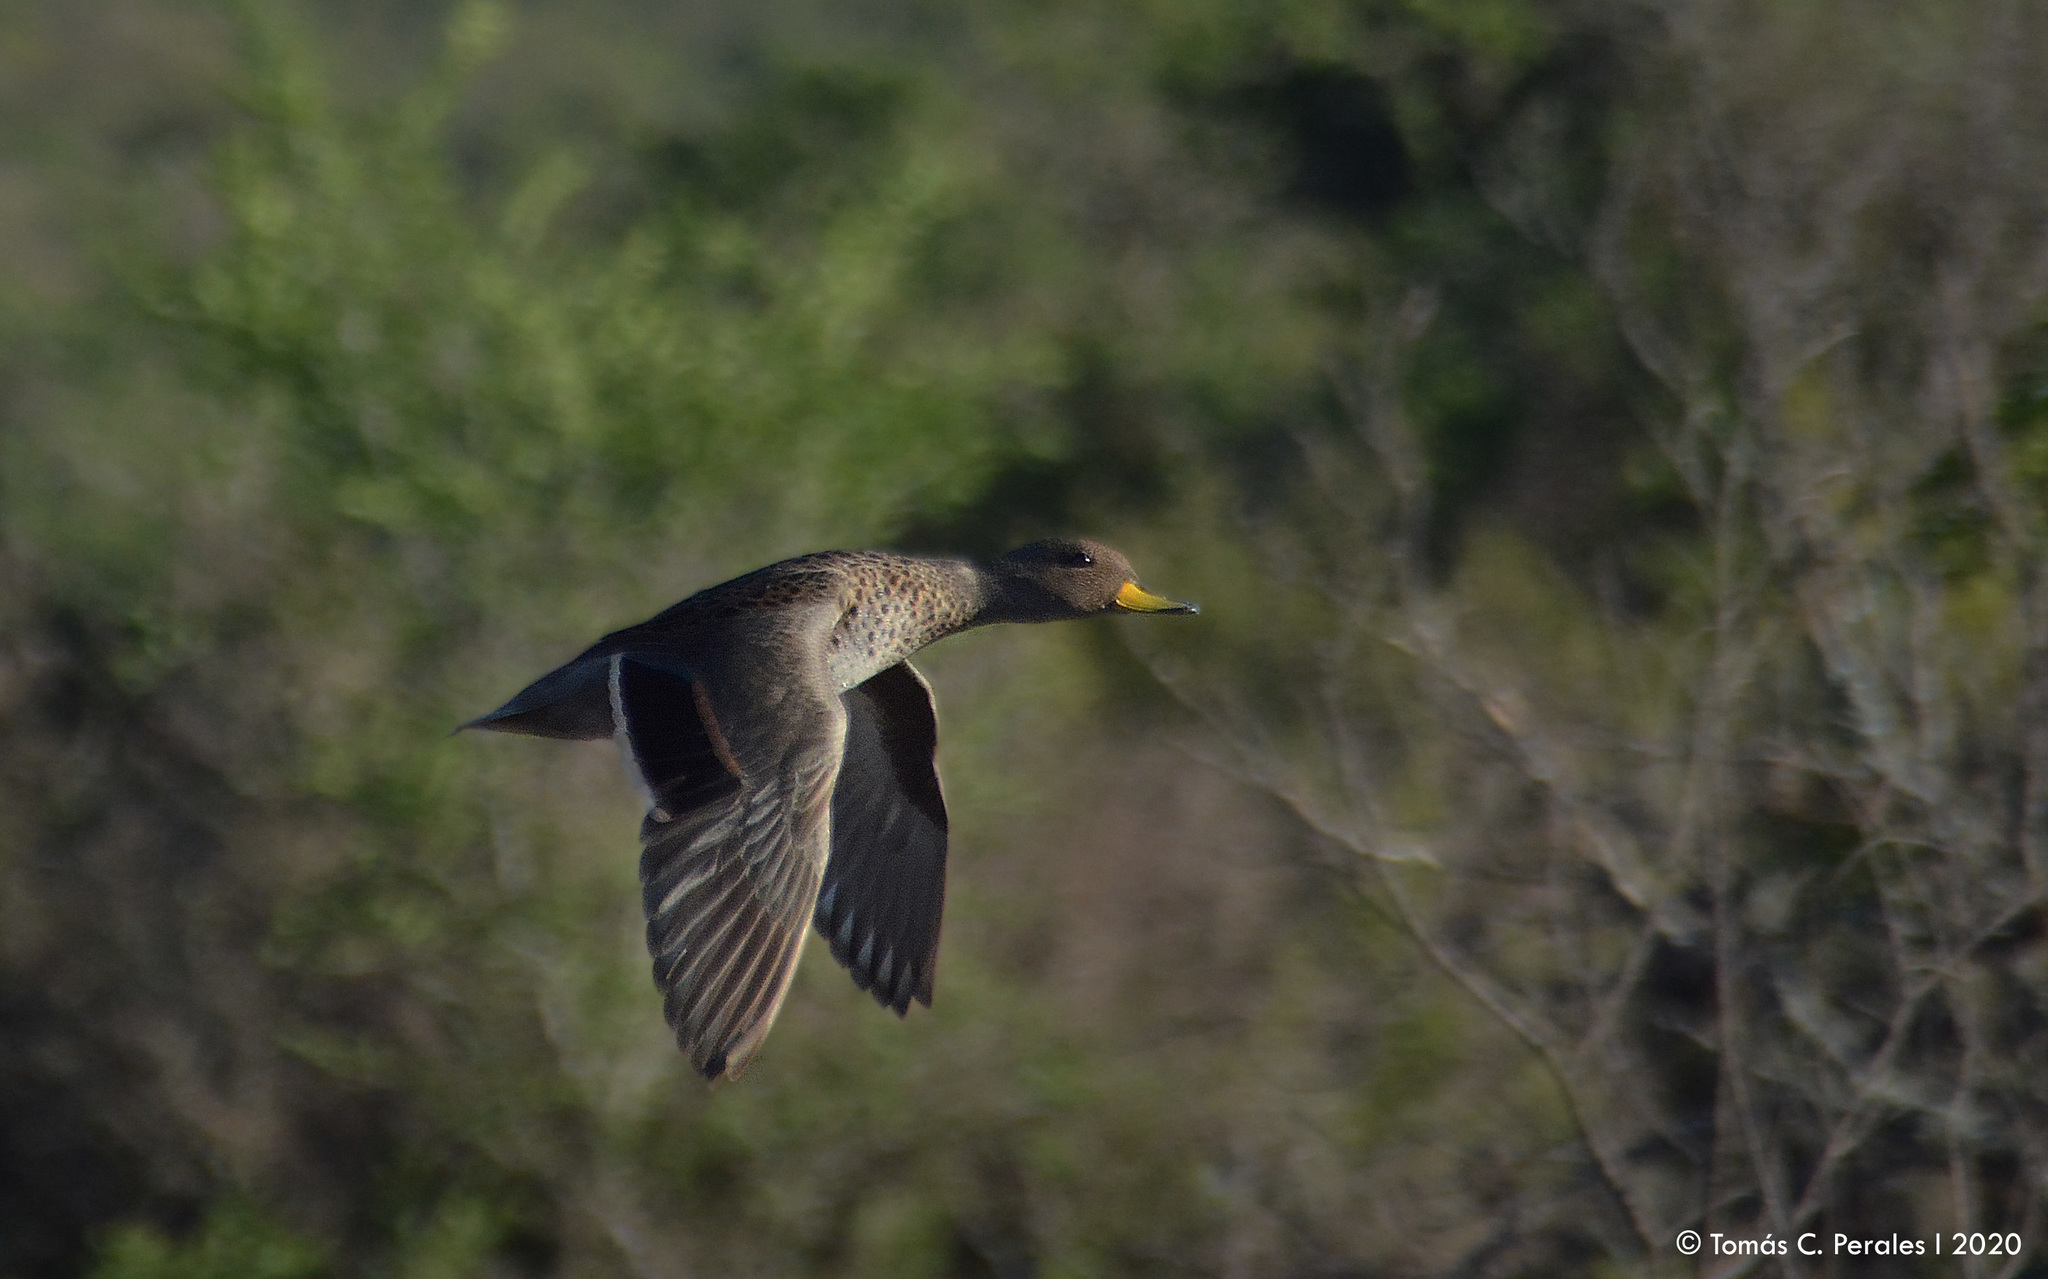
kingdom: Animalia
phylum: Chordata
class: Aves
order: Anseriformes
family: Anatidae
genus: Anas
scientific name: Anas flavirostris
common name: Yellow-billed teal
